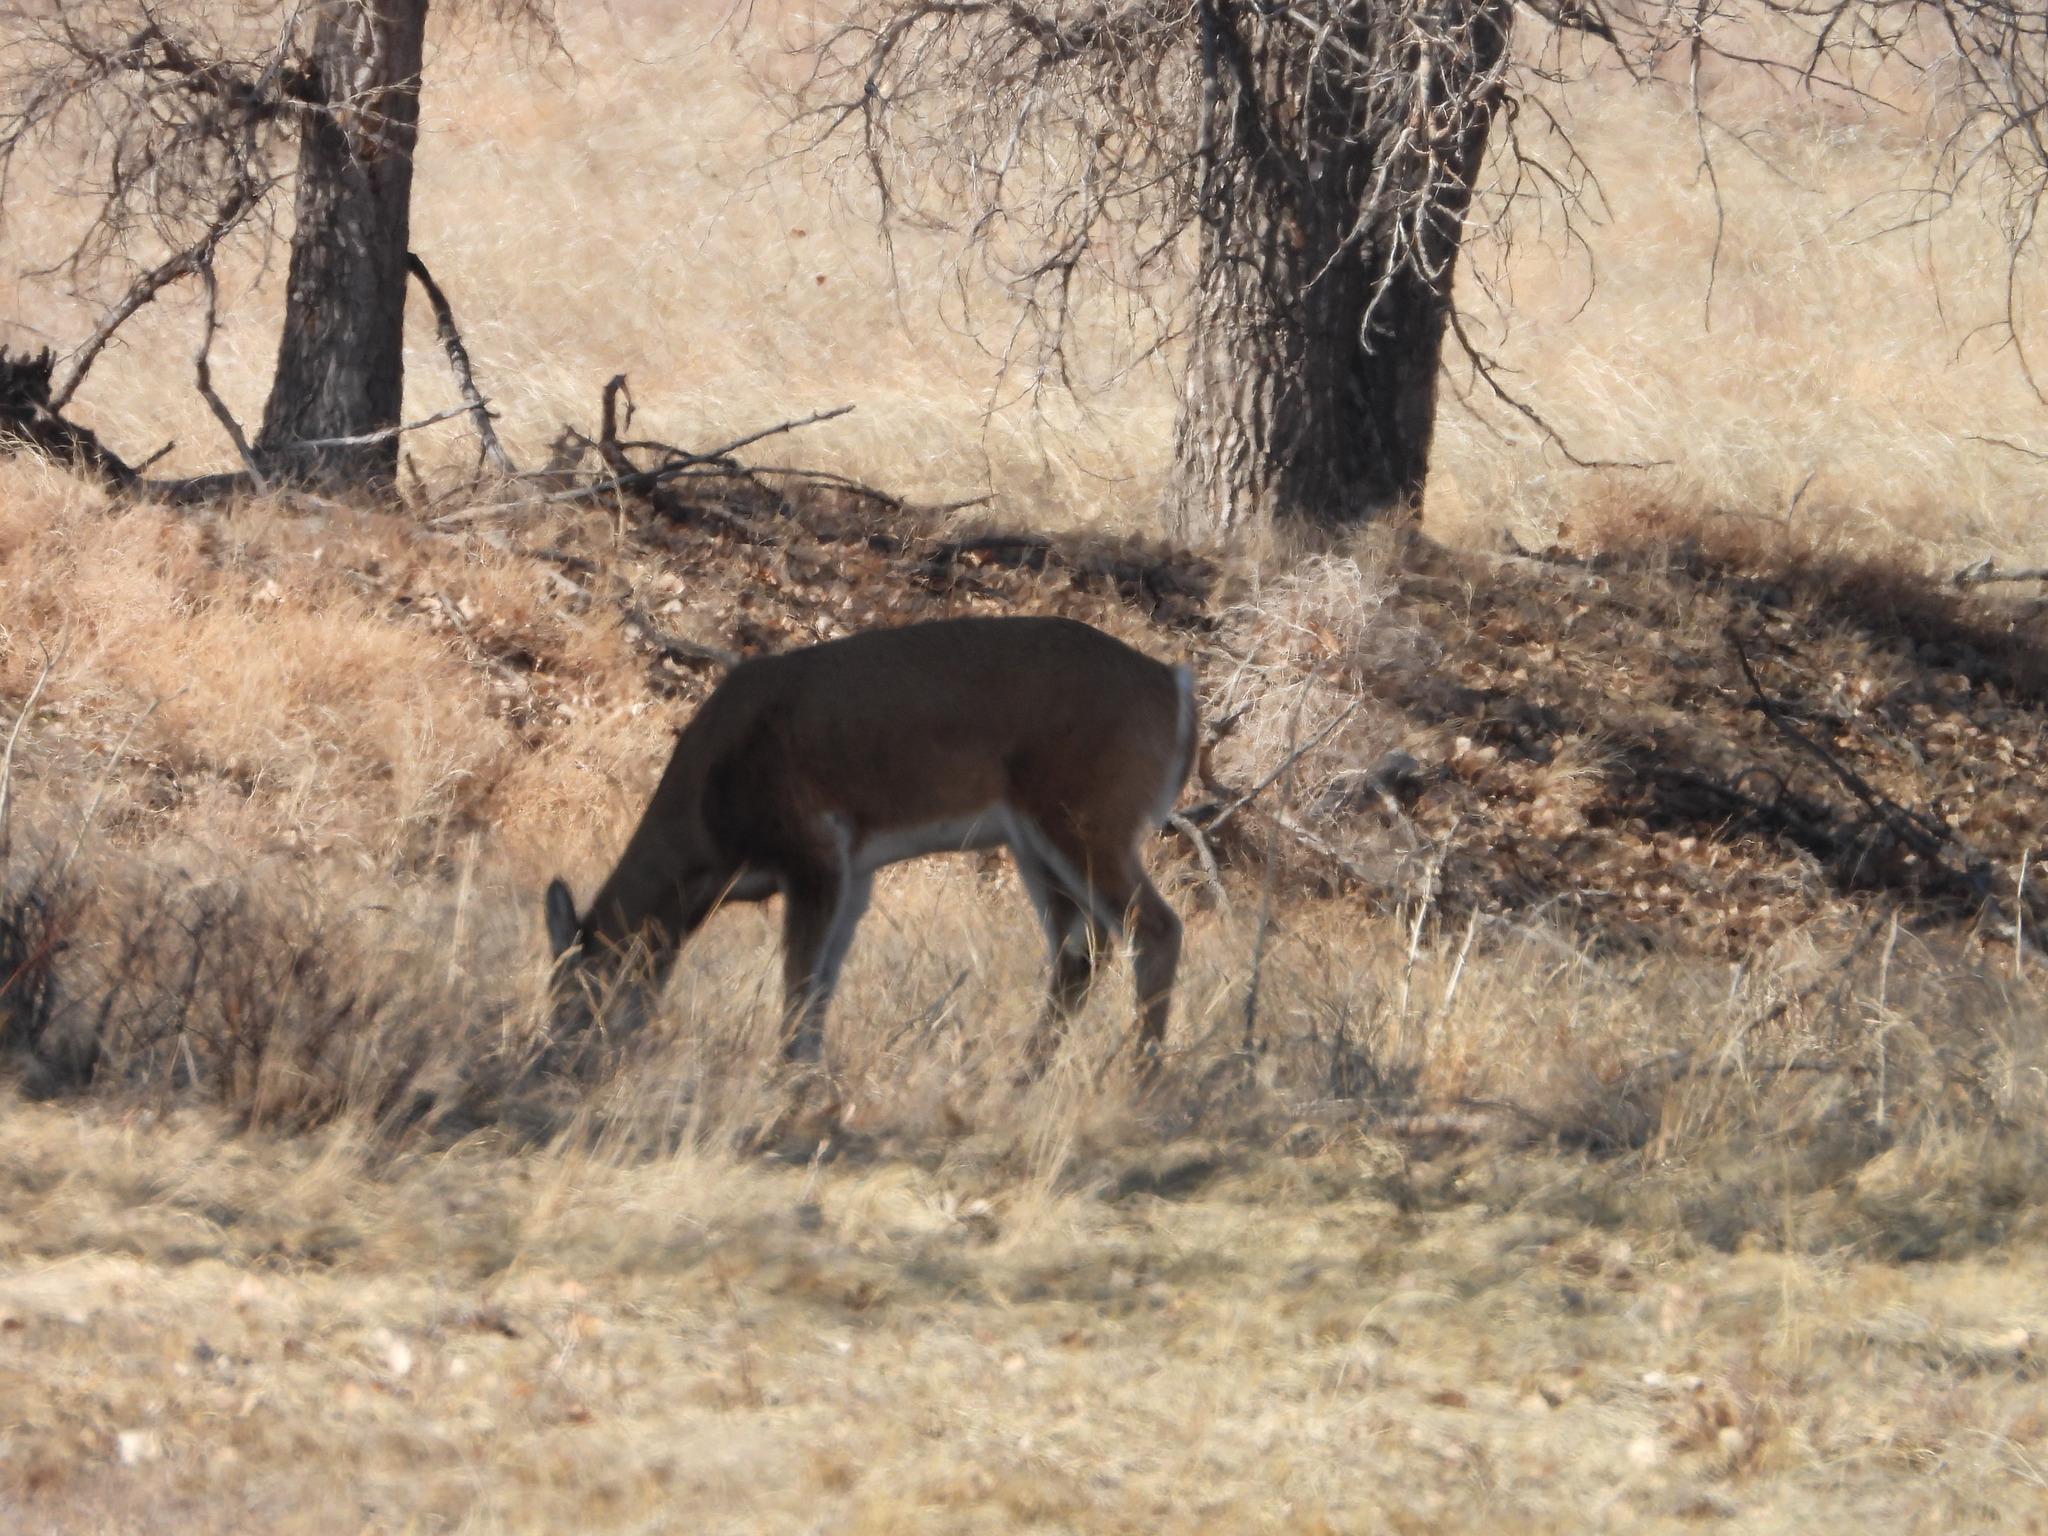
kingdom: Animalia
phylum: Chordata
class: Mammalia
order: Artiodactyla
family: Cervidae
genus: Odocoileus
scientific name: Odocoileus virginianus
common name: White-tailed deer
